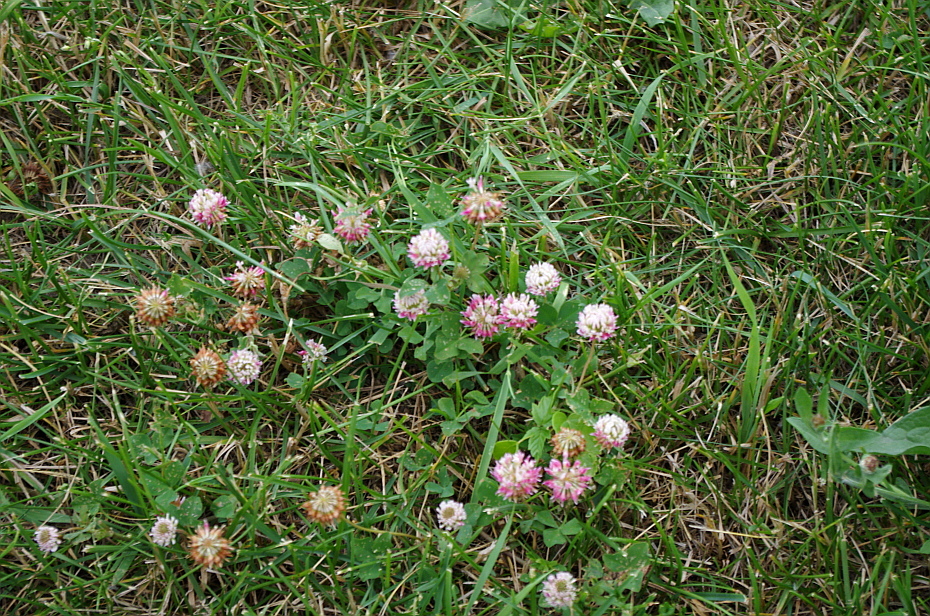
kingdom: Plantae
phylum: Tracheophyta
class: Magnoliopsida
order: Fabales
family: Fabaceae
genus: Trifolium
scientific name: Trifolium hybridum
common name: Alsike clover
